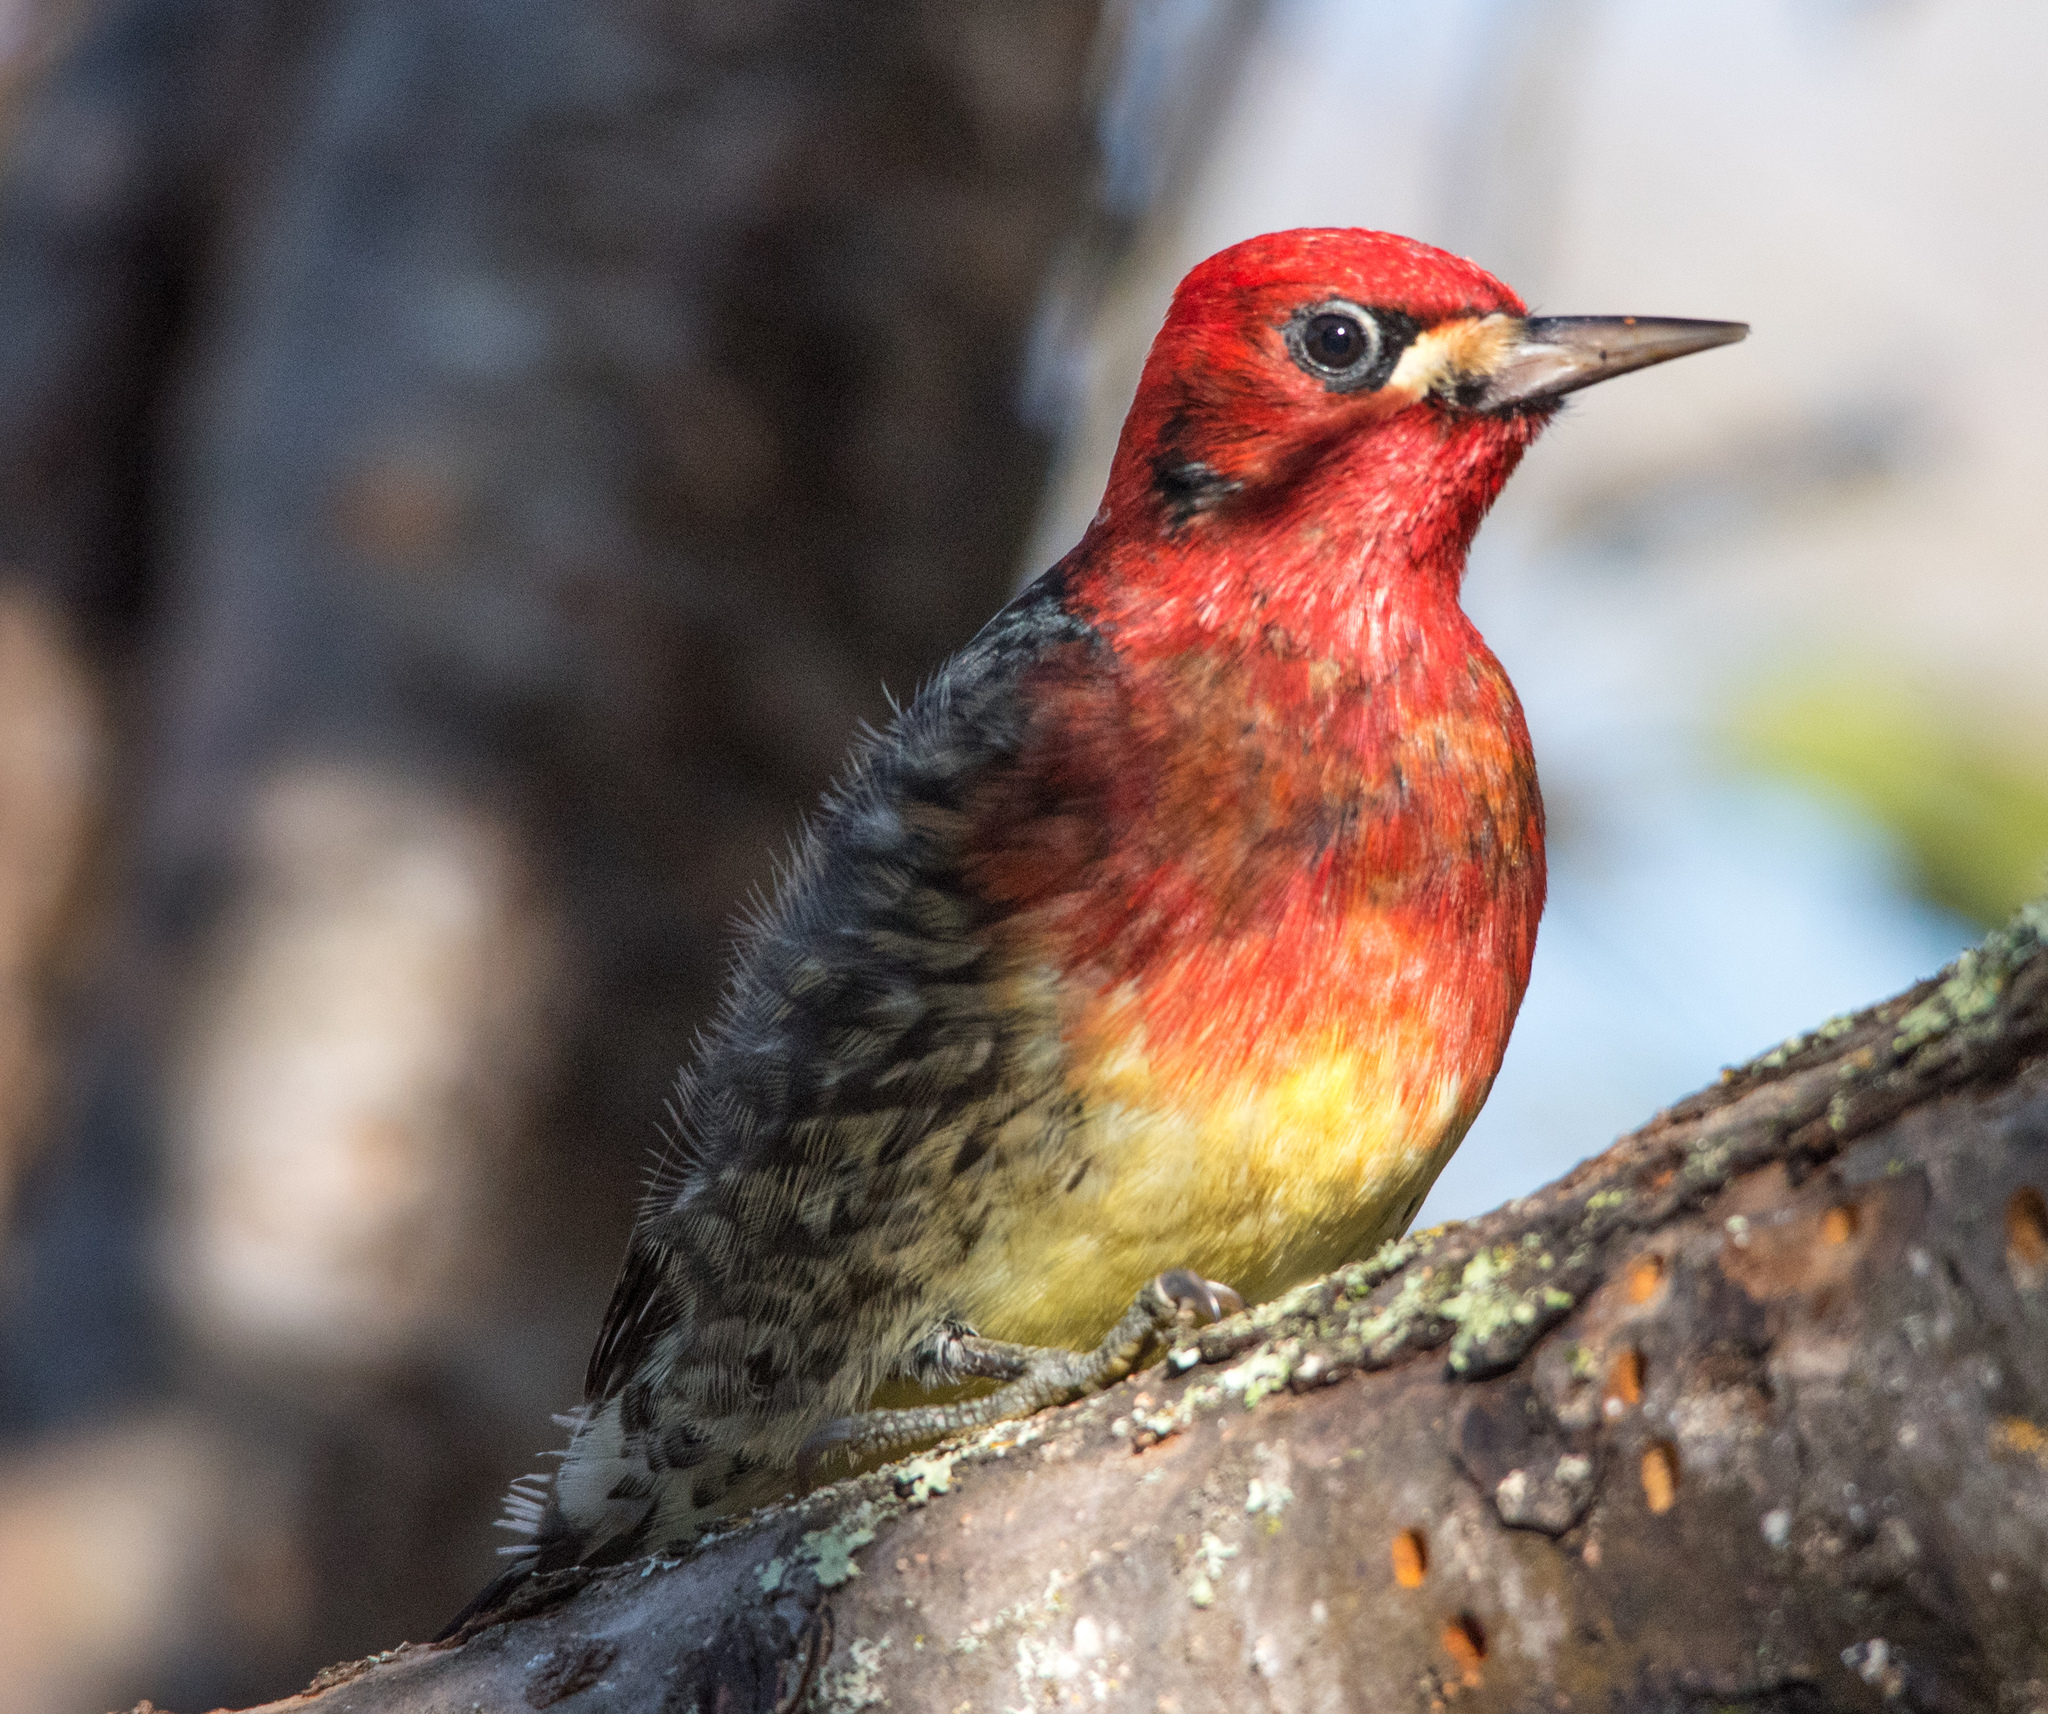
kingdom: Animalia
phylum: Chordata
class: Aves
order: Piciformes
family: Picidae
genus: Sphyrapicus
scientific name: Sphyrapicus ruber
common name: Red-breasted sapsucker
